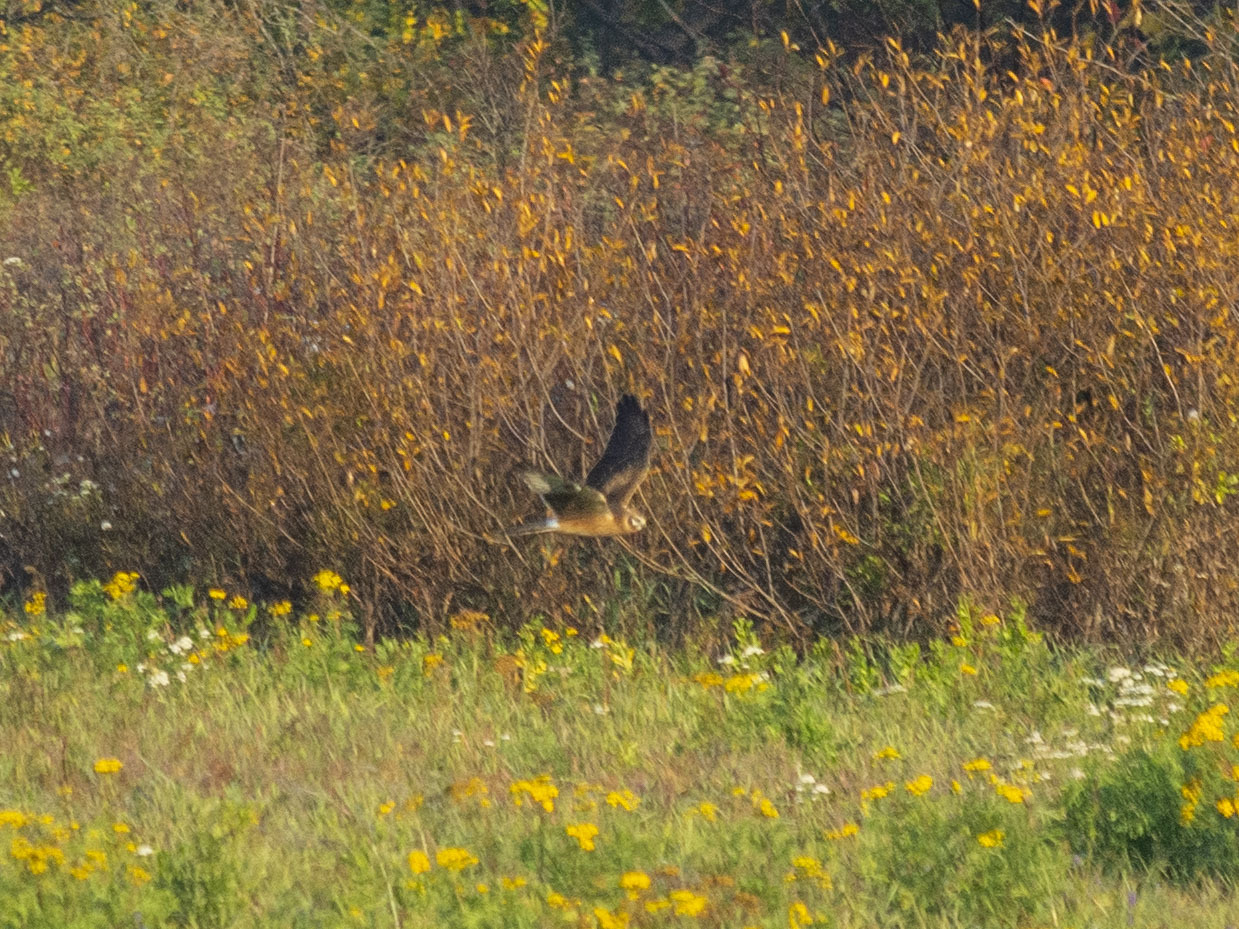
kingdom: Animalia
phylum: Chordata
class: Aves
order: Accipitriformes
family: Accipitridae
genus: Circus
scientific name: Circus macrourus
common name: Pallid harrier
